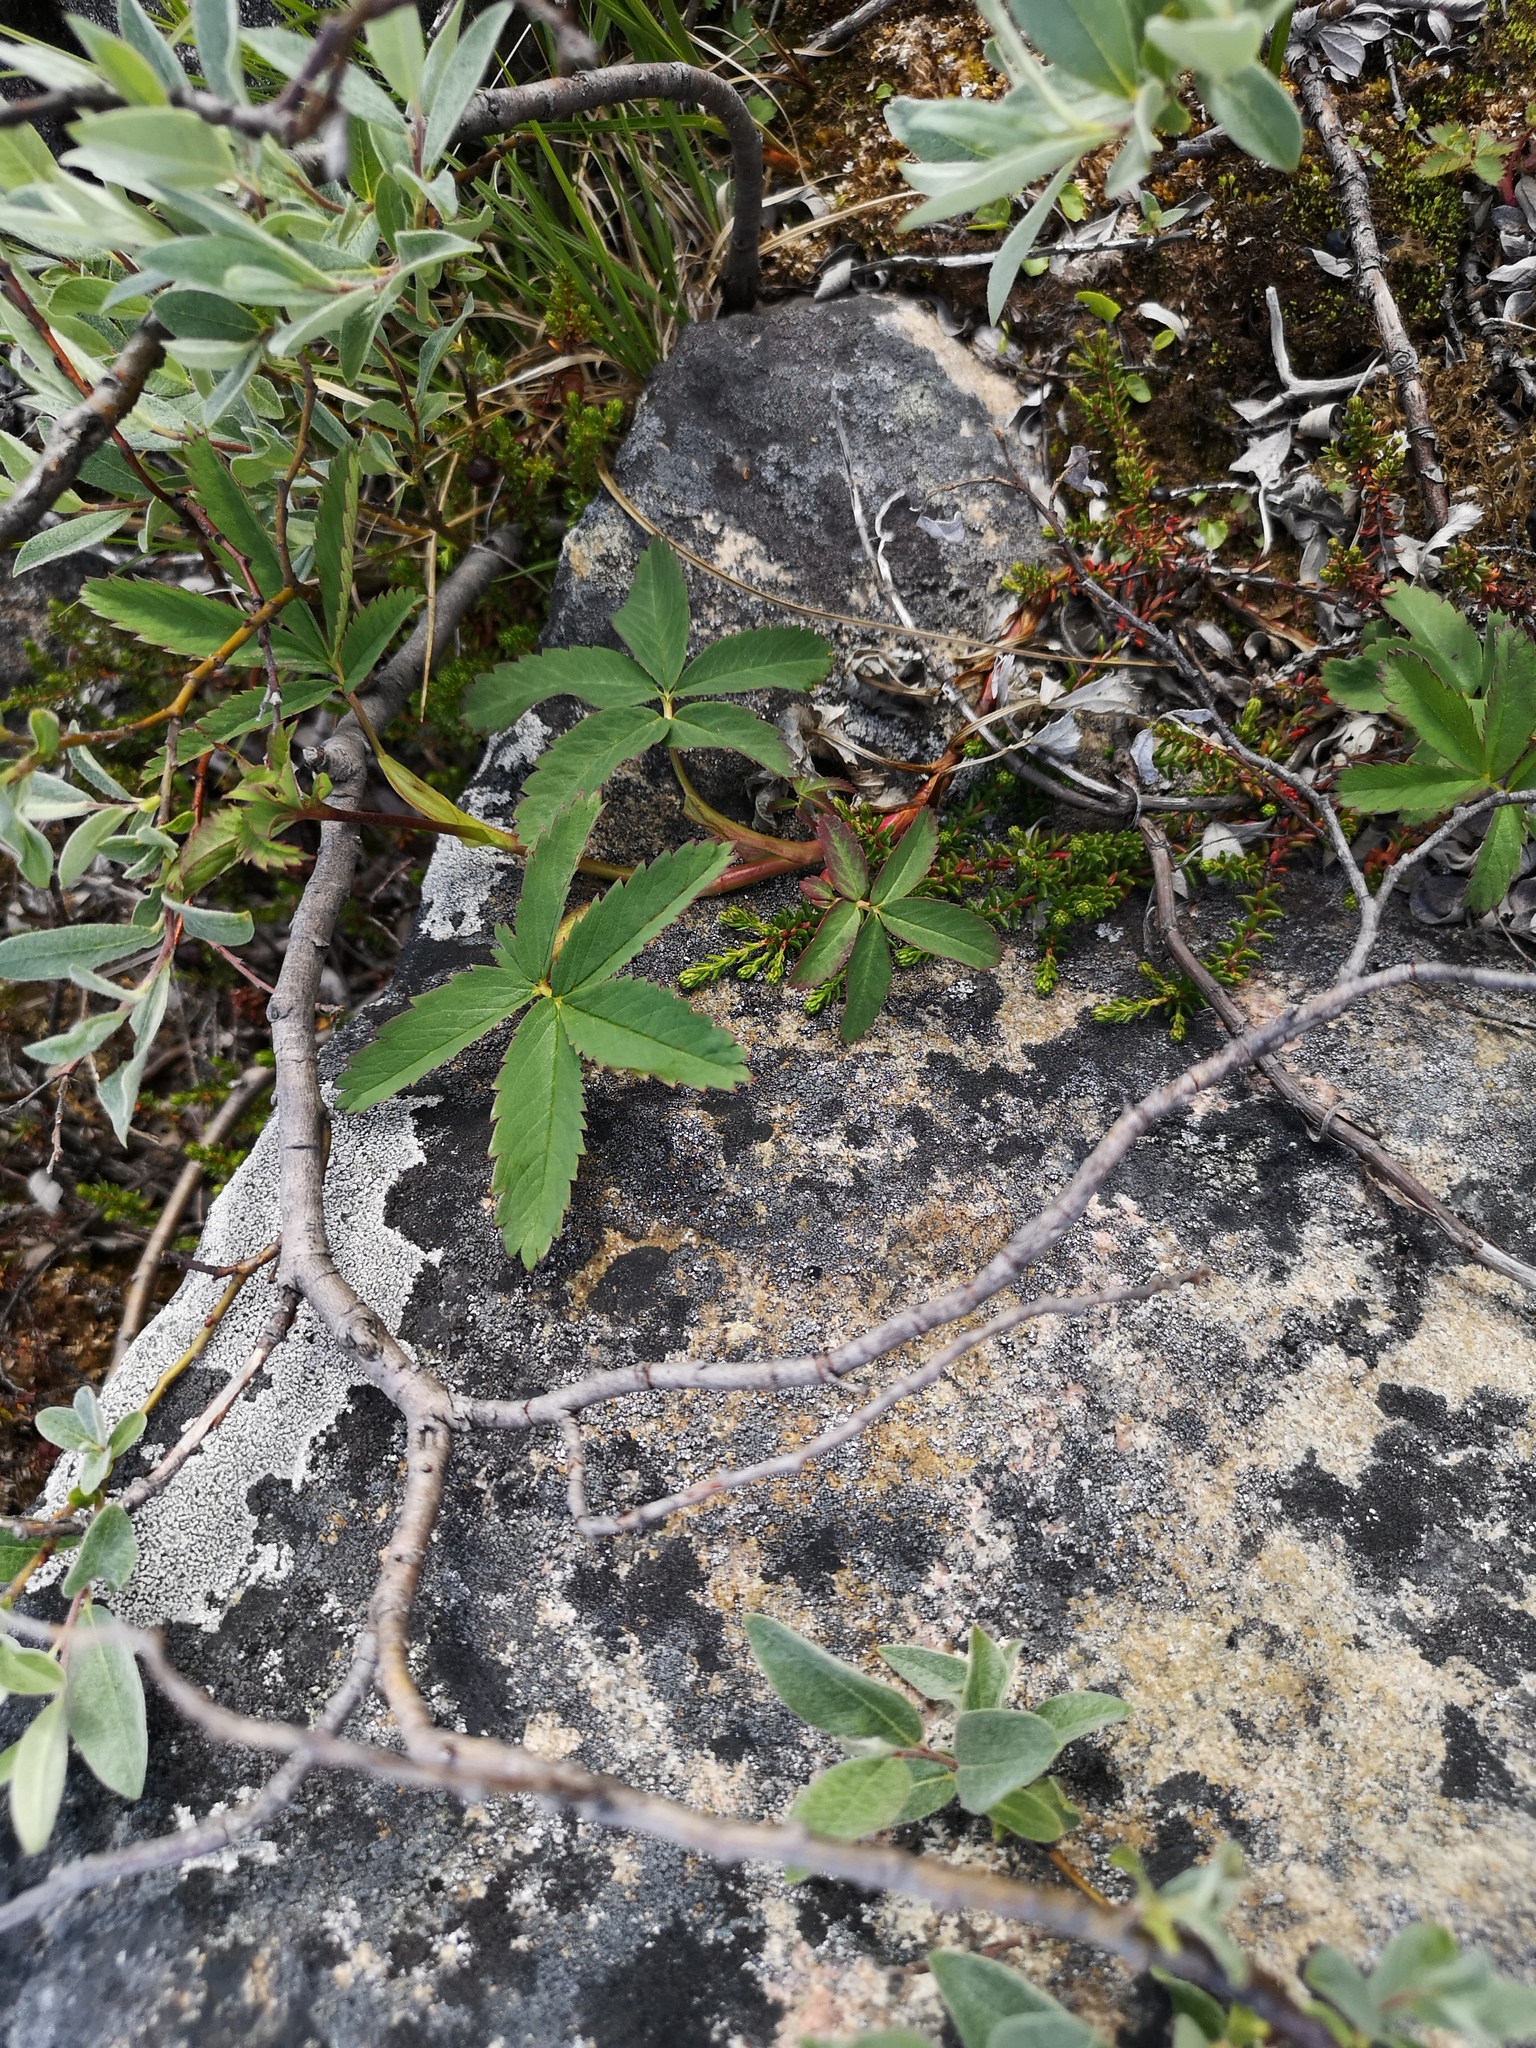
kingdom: Plantae
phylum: Tracheophyta
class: Magnoliopsida
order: Rosales
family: Rosaceae
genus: Comarum
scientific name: Comarum palustre
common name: Marsh cinquefoil
